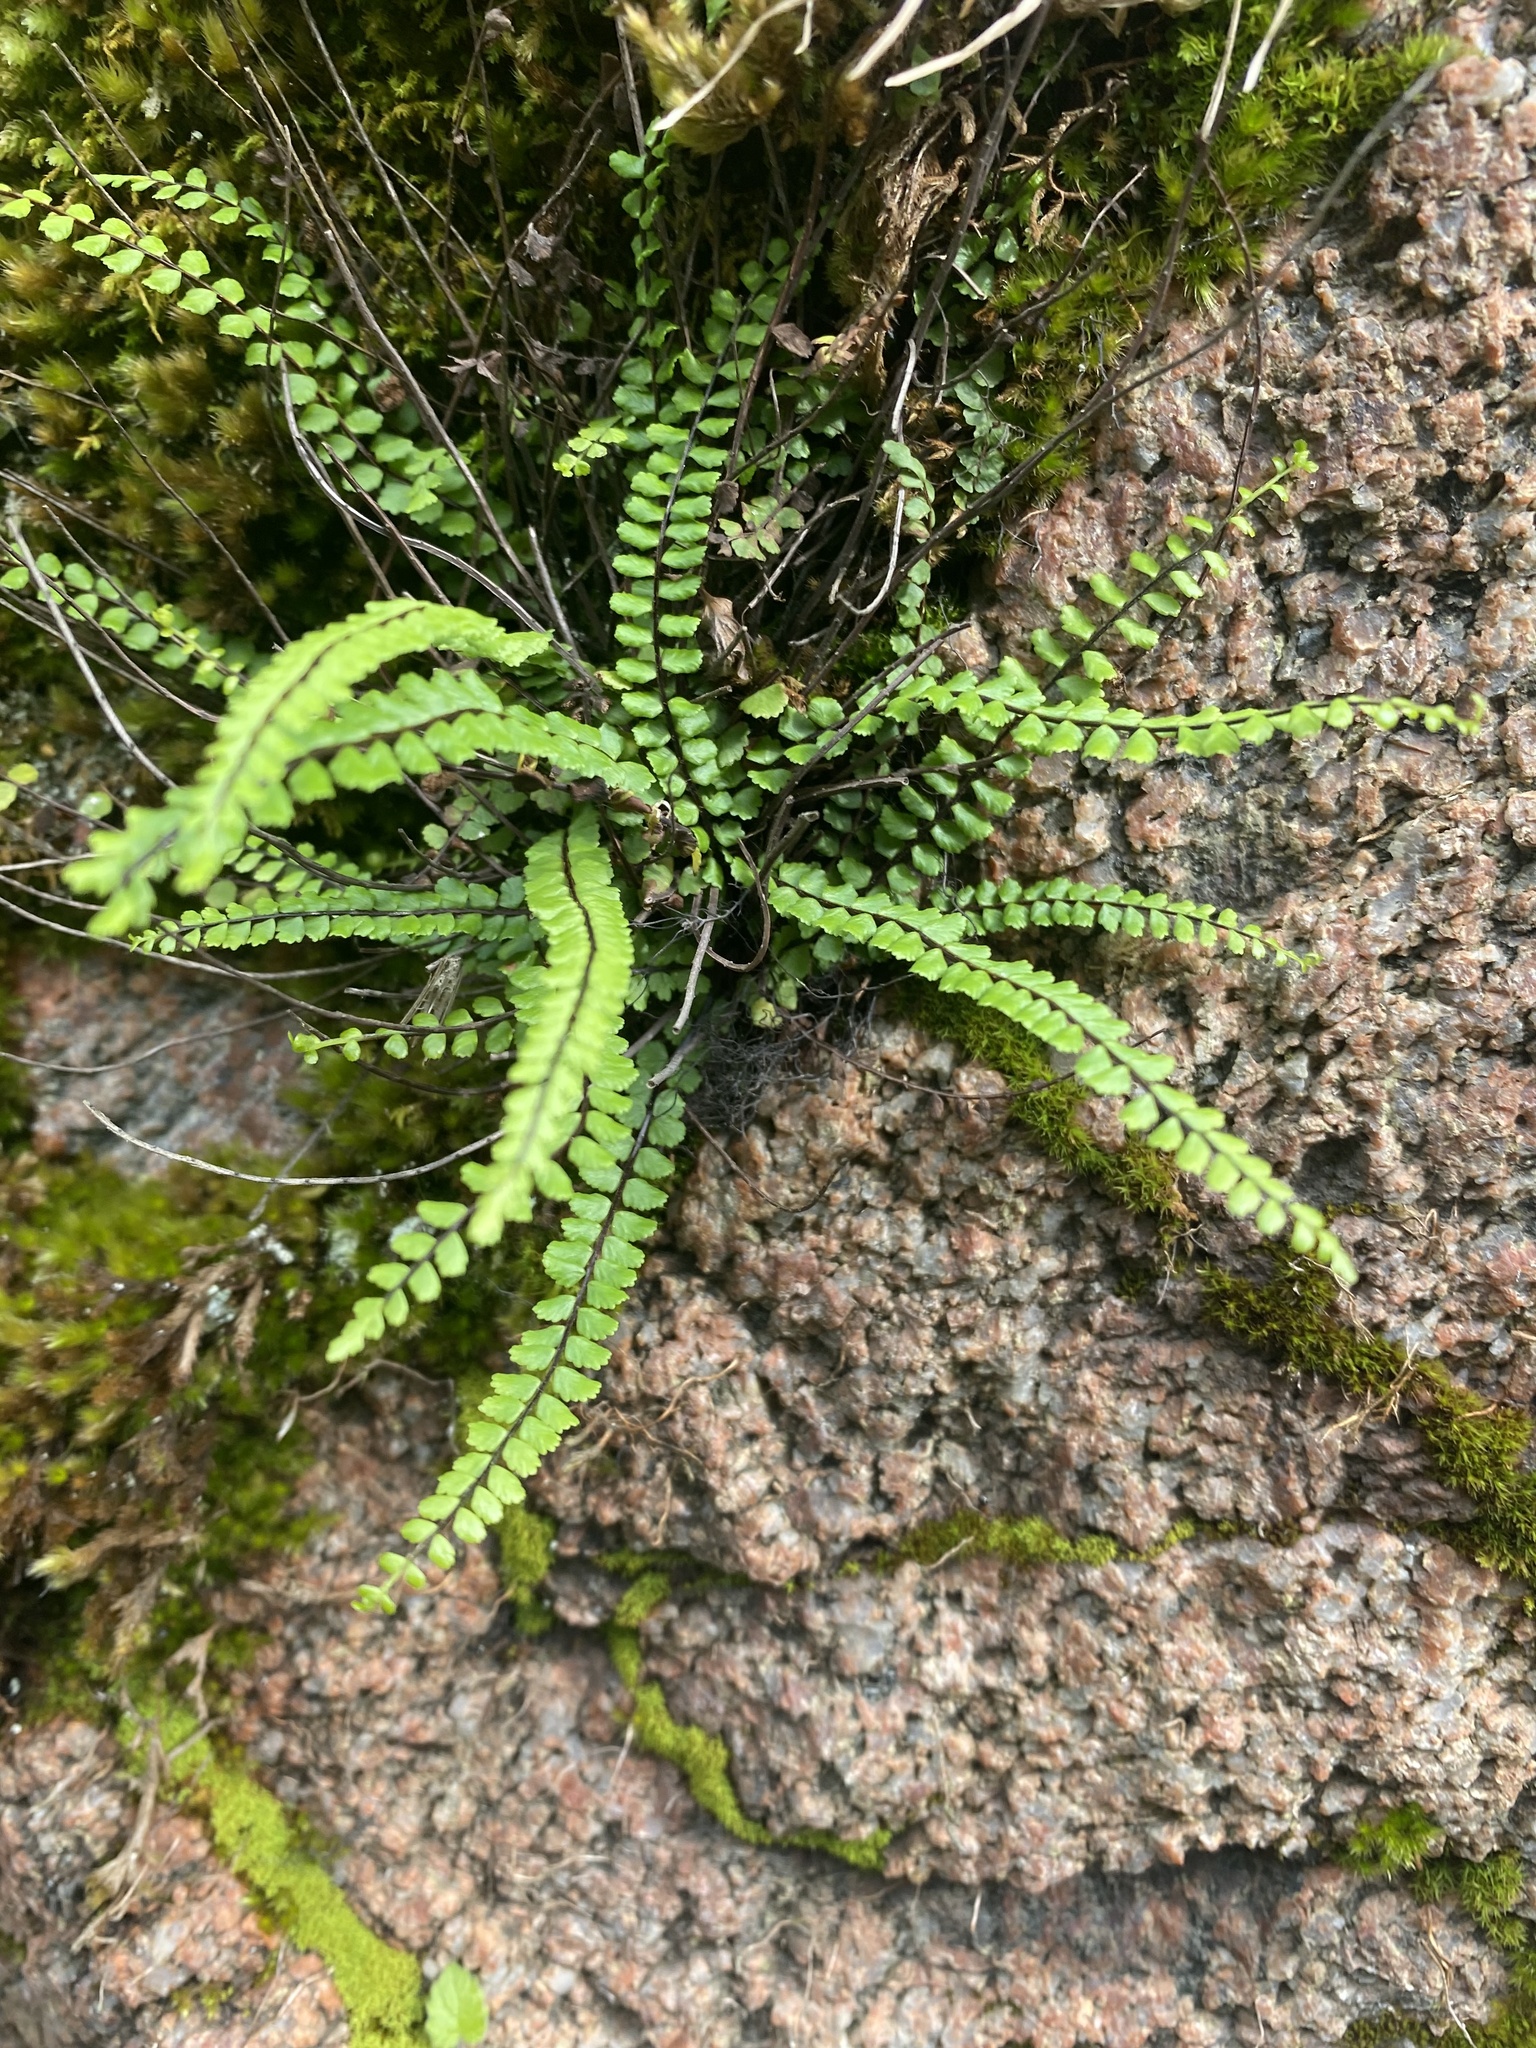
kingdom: Plantae
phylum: Tracheophyta
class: Polypodiopsida
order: Polypodiales
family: Aspleniaceae
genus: Asplenium
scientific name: Asplenium trichomanes
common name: Maidenhair spleenwort
